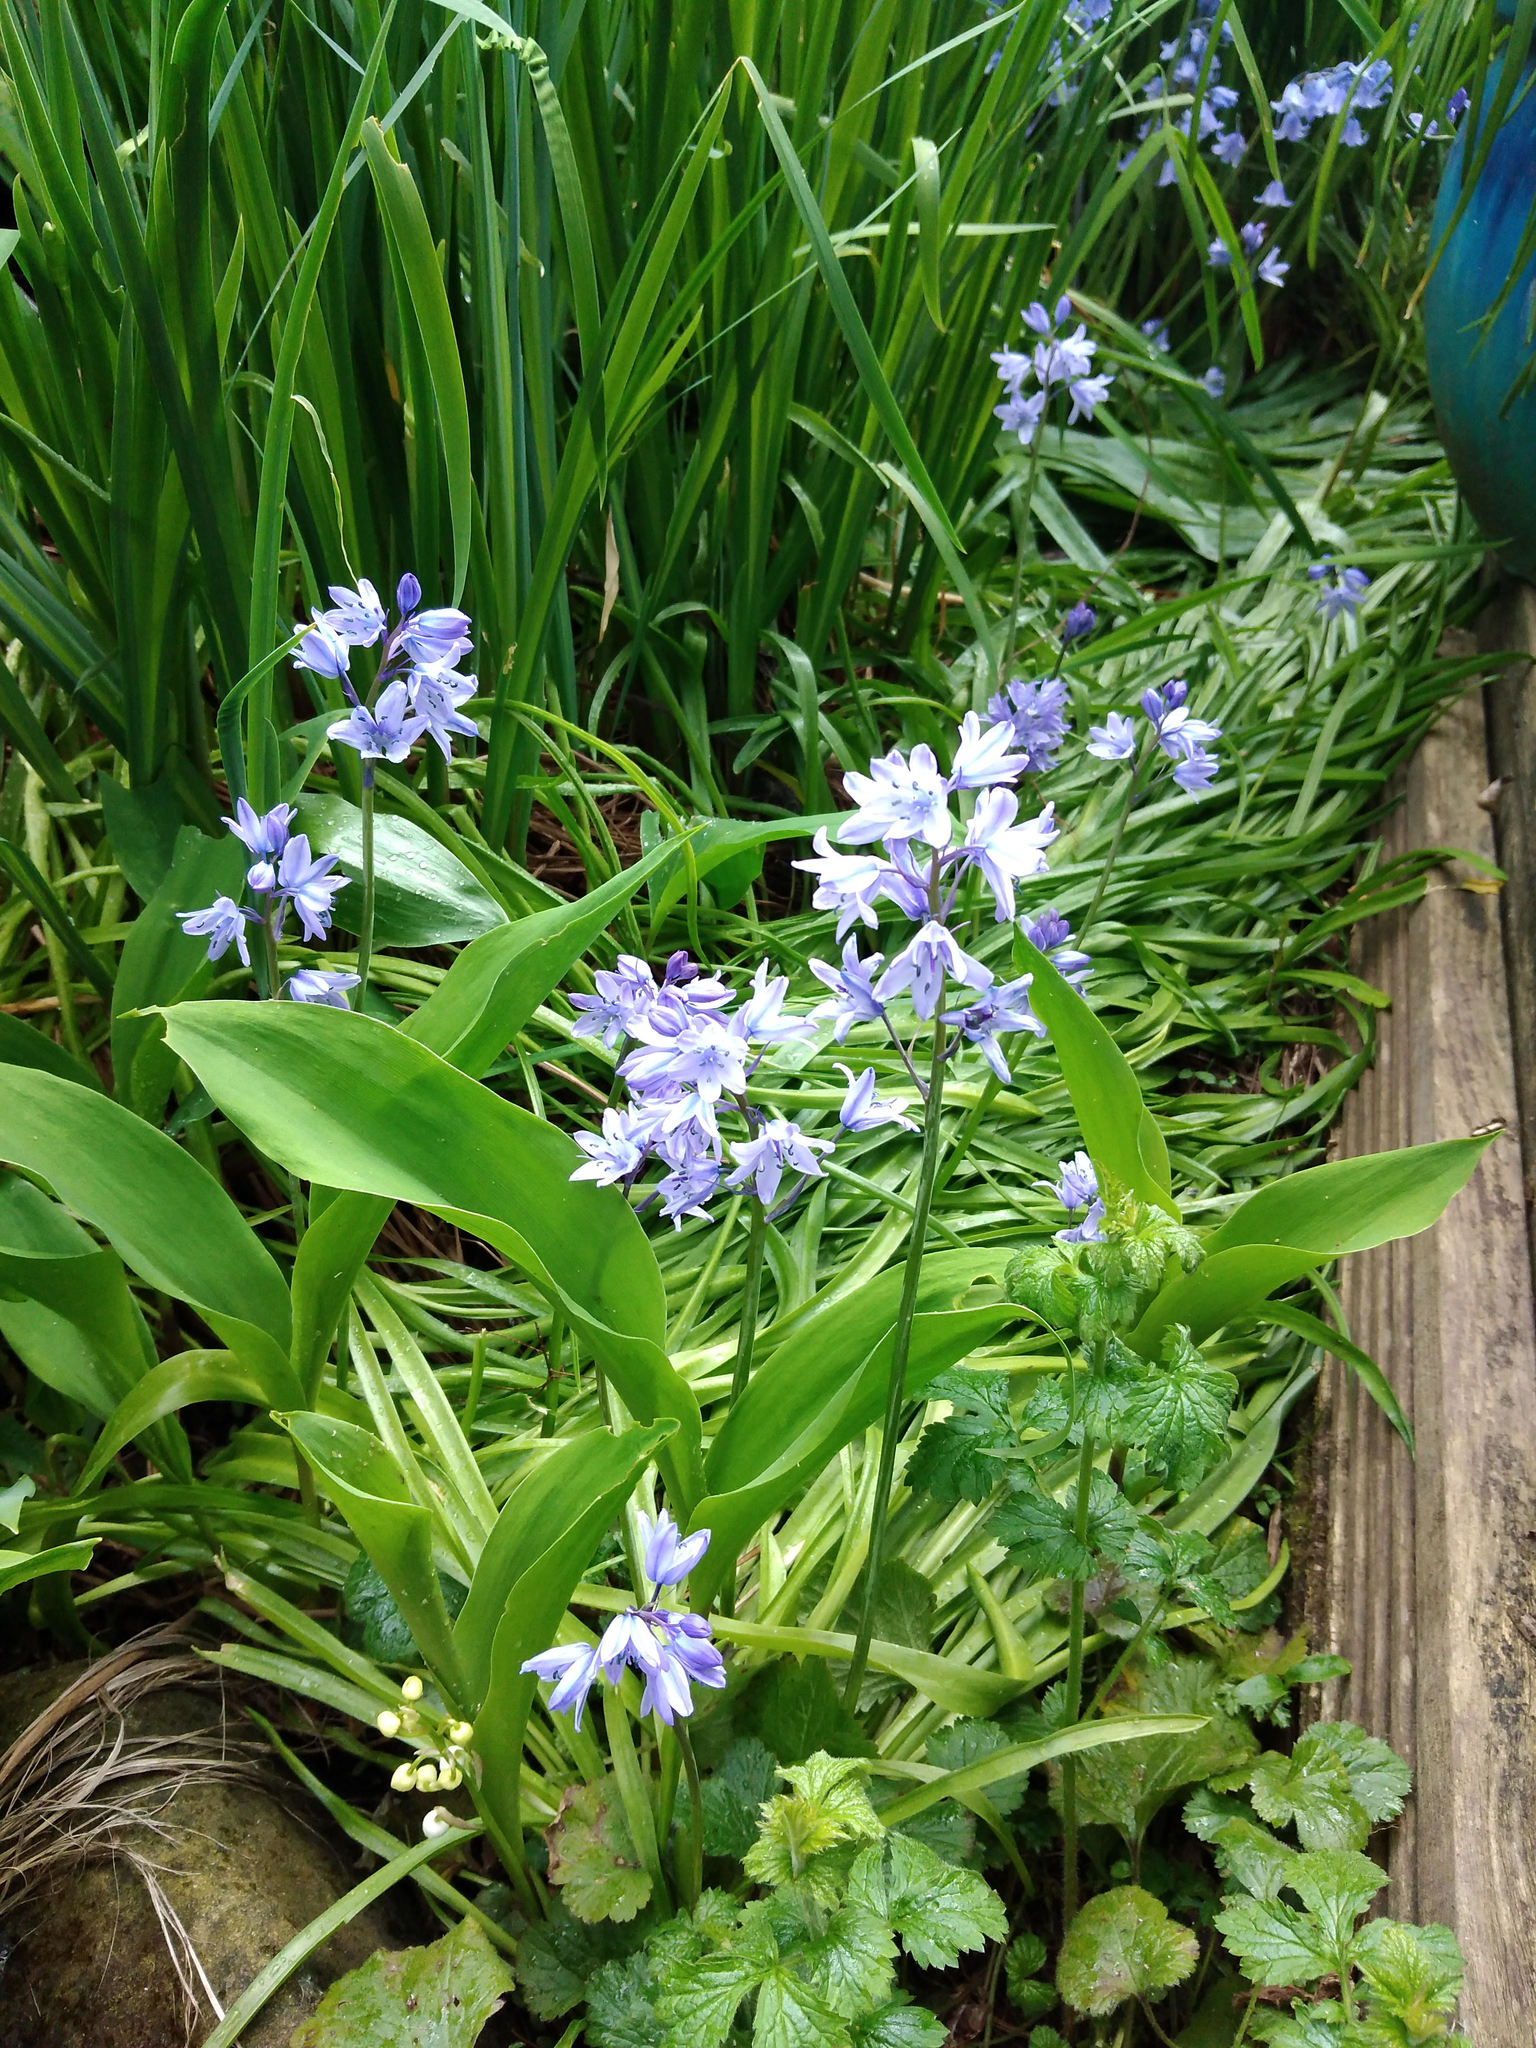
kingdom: Plantae
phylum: Tracheophyta
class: Liliopsida
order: Asparagales
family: Asparagaceae
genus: Hyacinthoides
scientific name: Hyacinthoides hispanica
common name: Spanish bluebell
